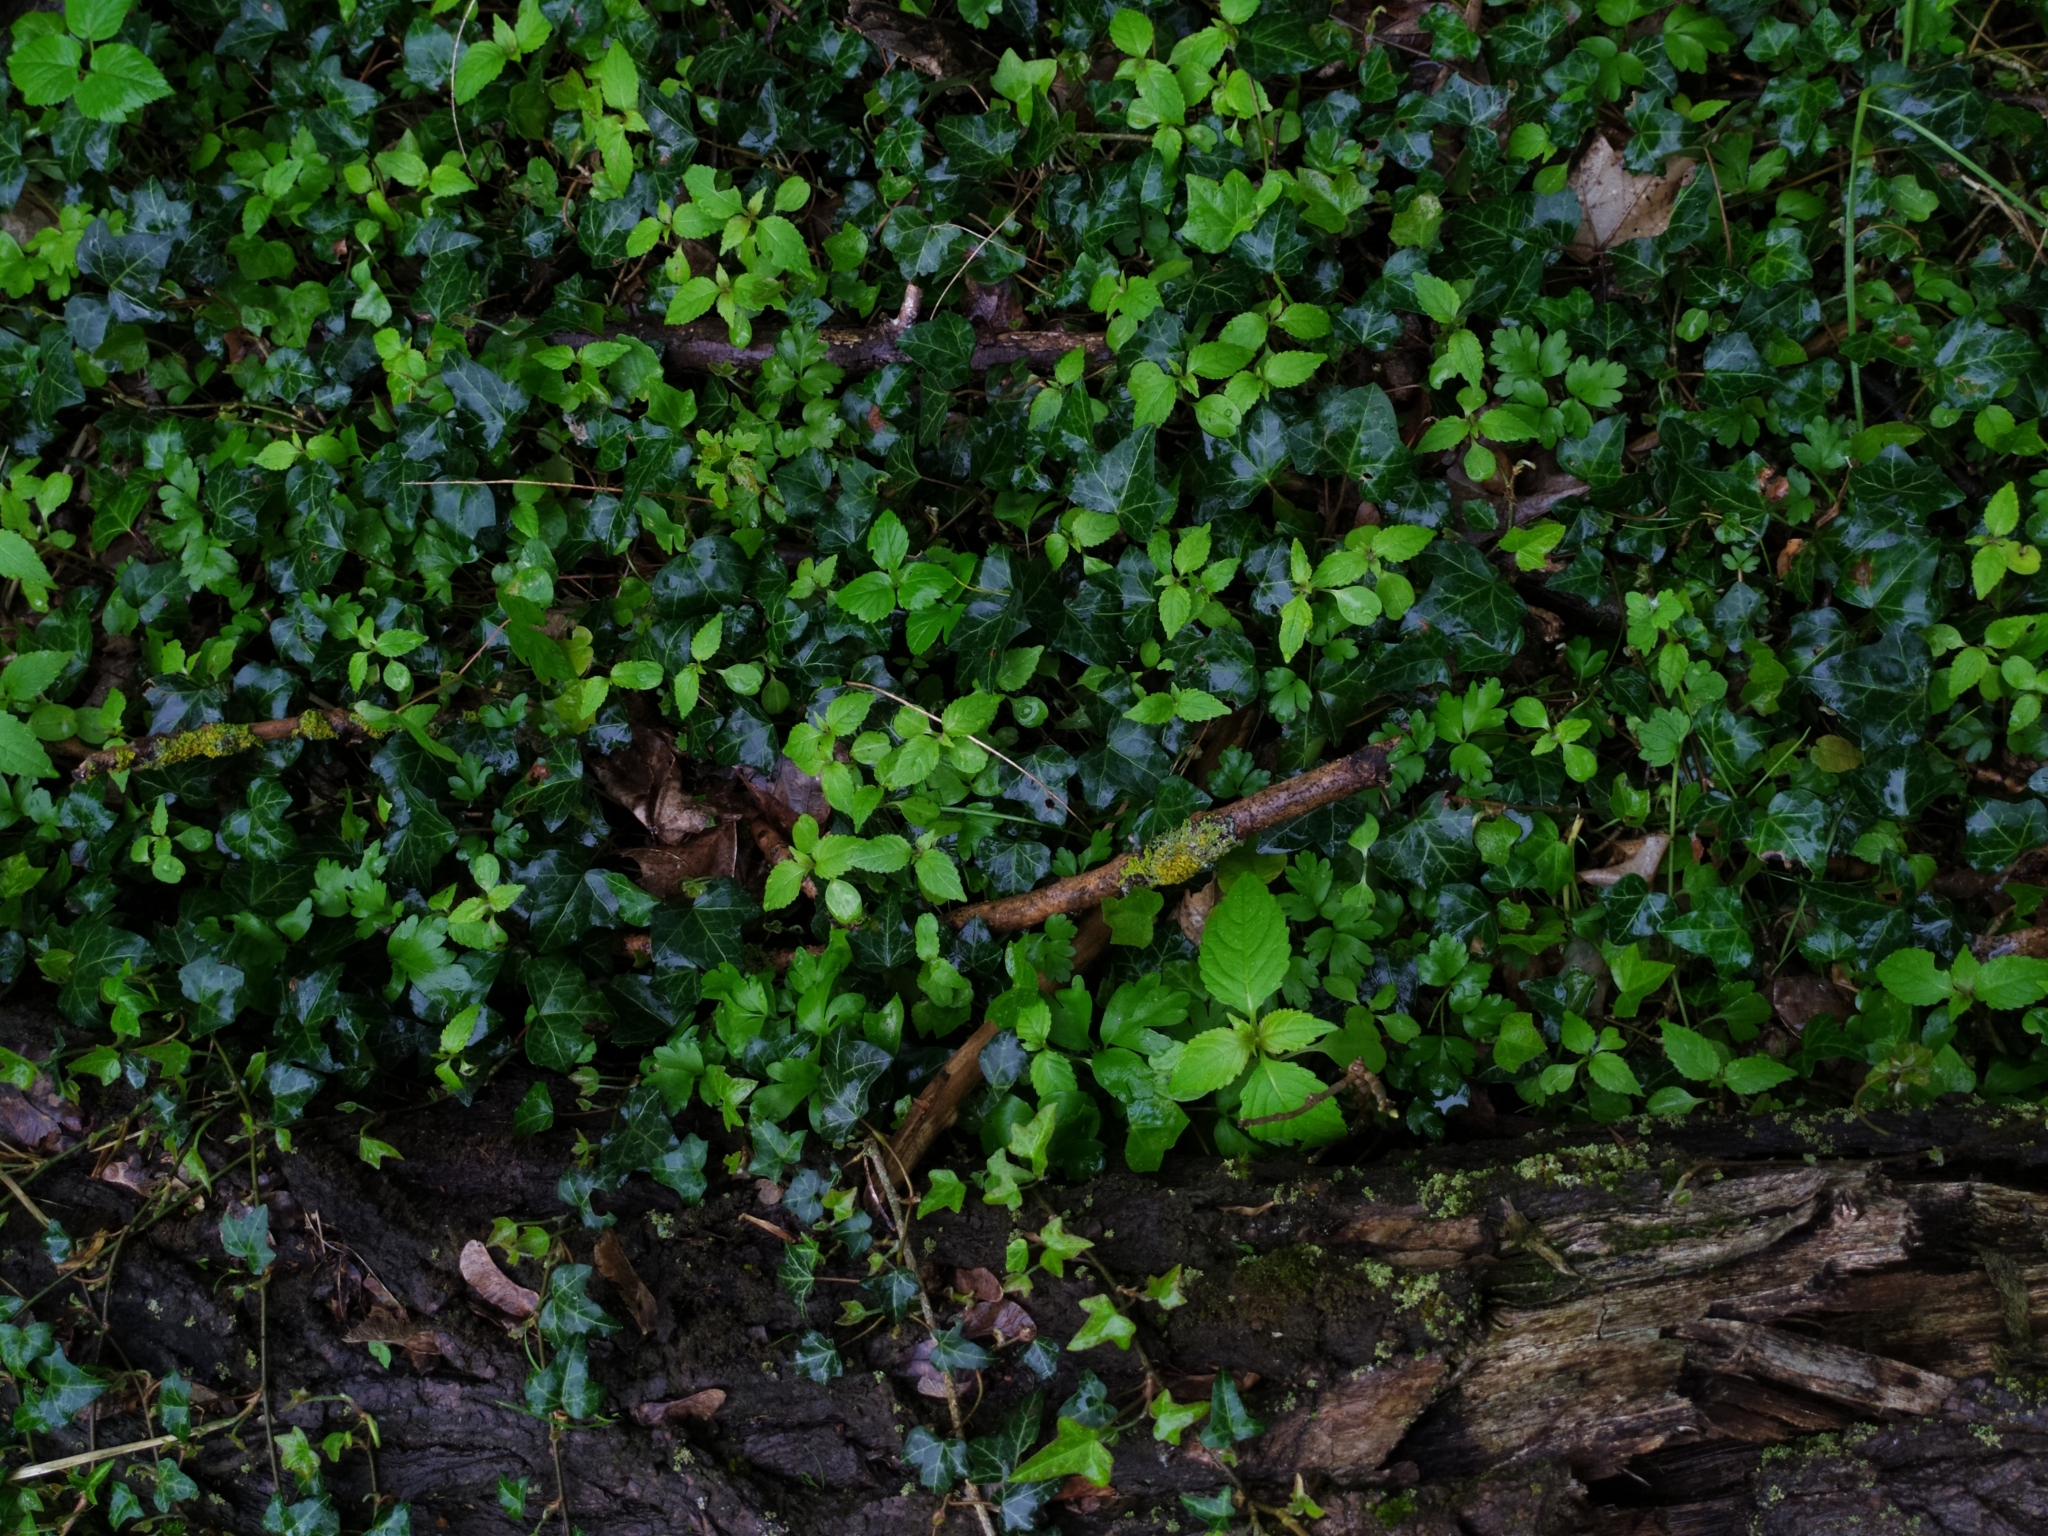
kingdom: Plantae
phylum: Tracheophyta
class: Magnoliopsida
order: Ericales
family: Balsaminaceae
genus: Impatiens
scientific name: Impatiens parviflora
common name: Small balsam
